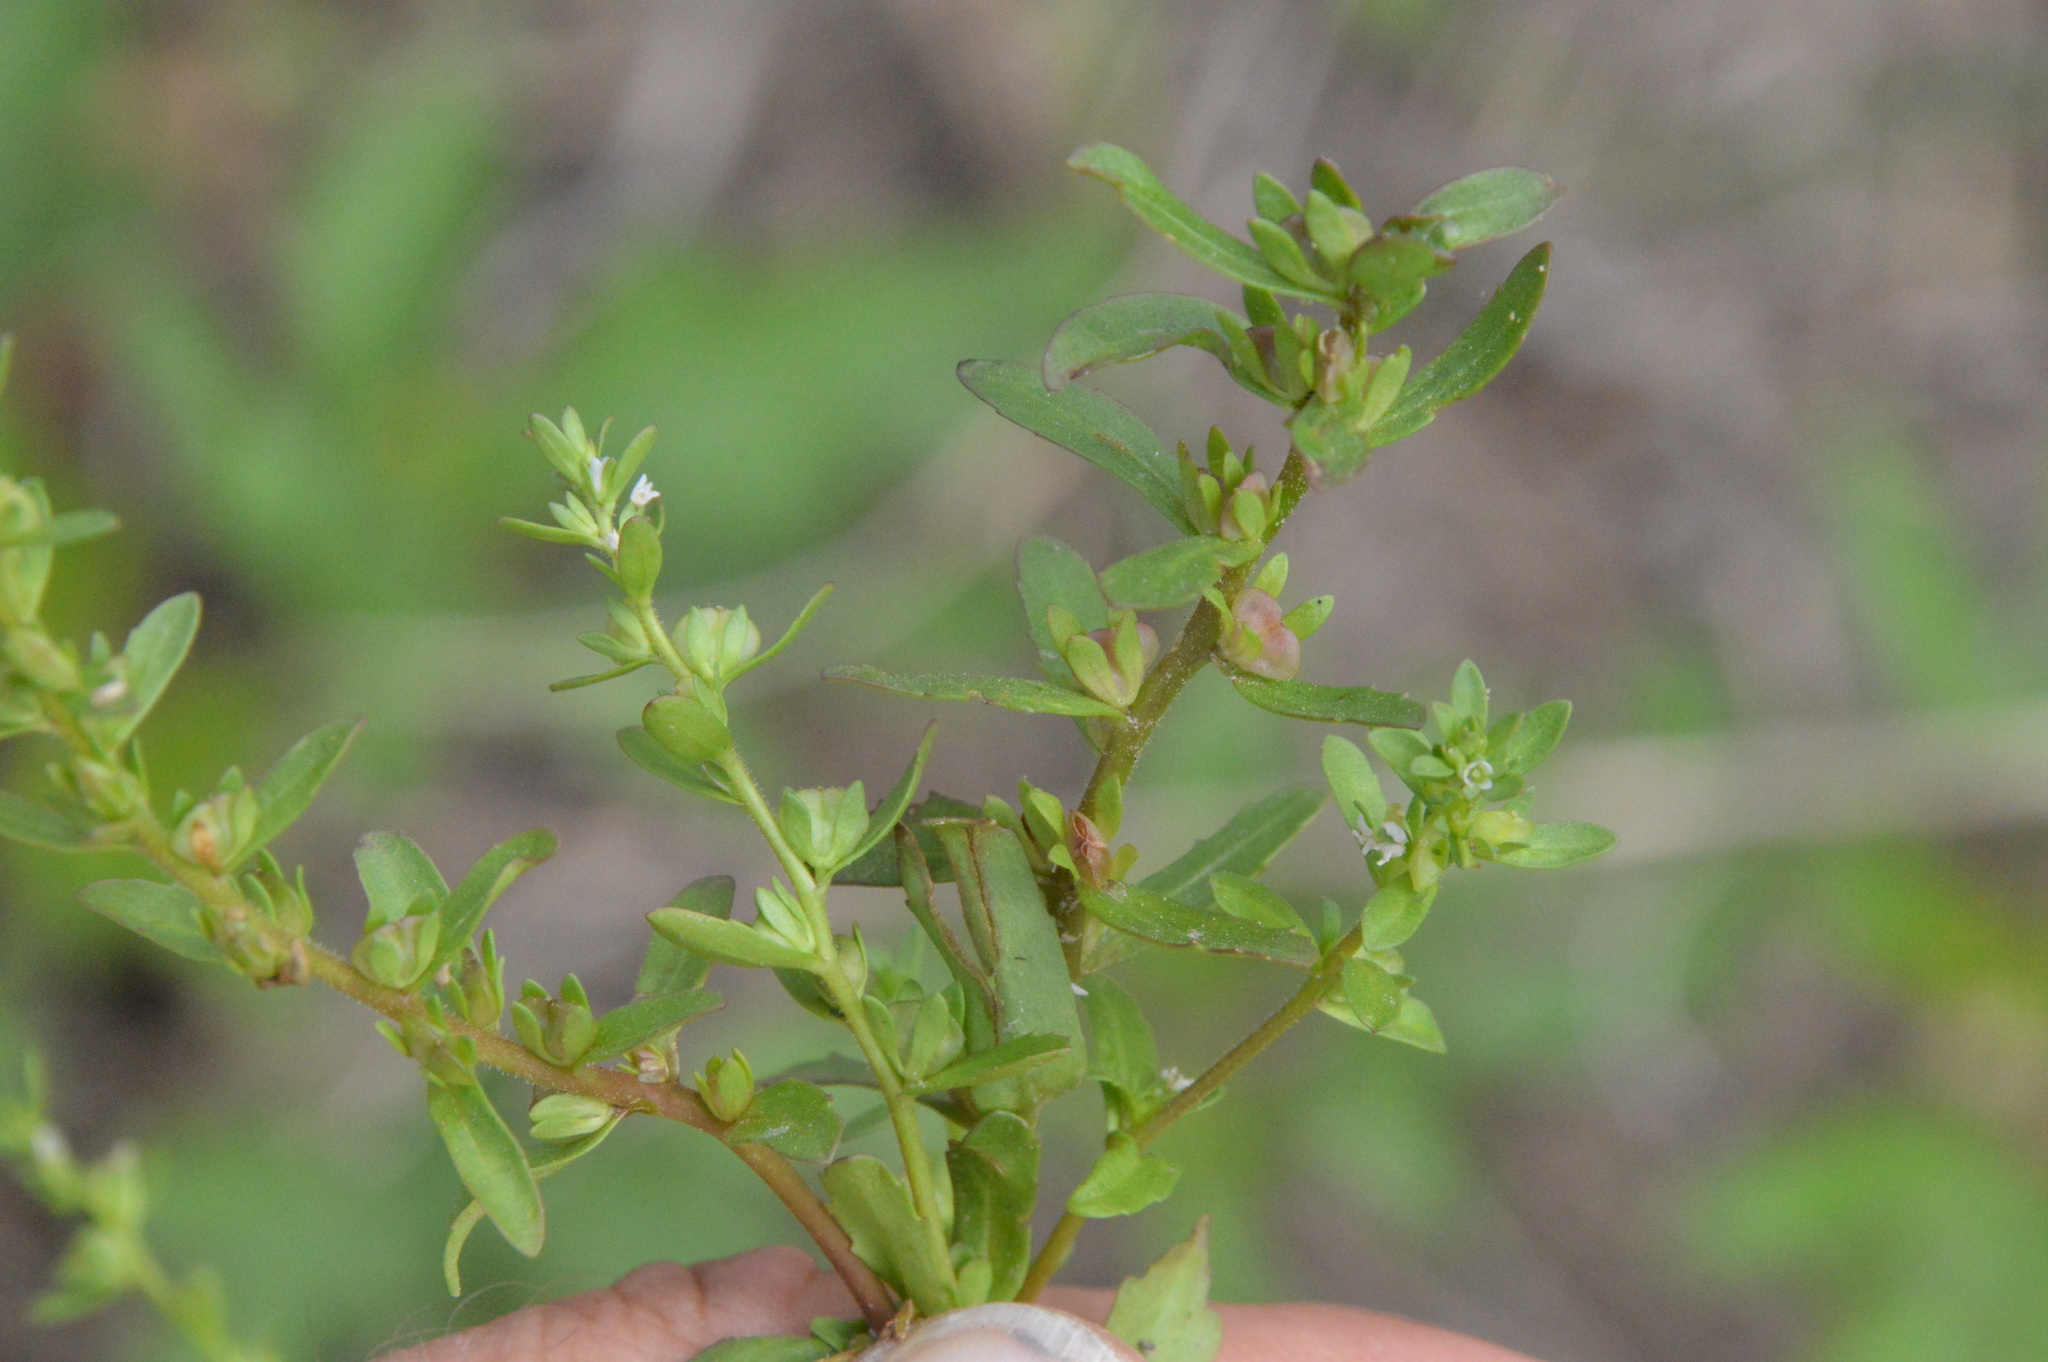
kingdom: Plantae
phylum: Tracheophyta
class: Magnoliopsida
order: Lamiales
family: Plantaginaceae
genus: Veronica
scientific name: Veronica peregrina
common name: Neckweed
